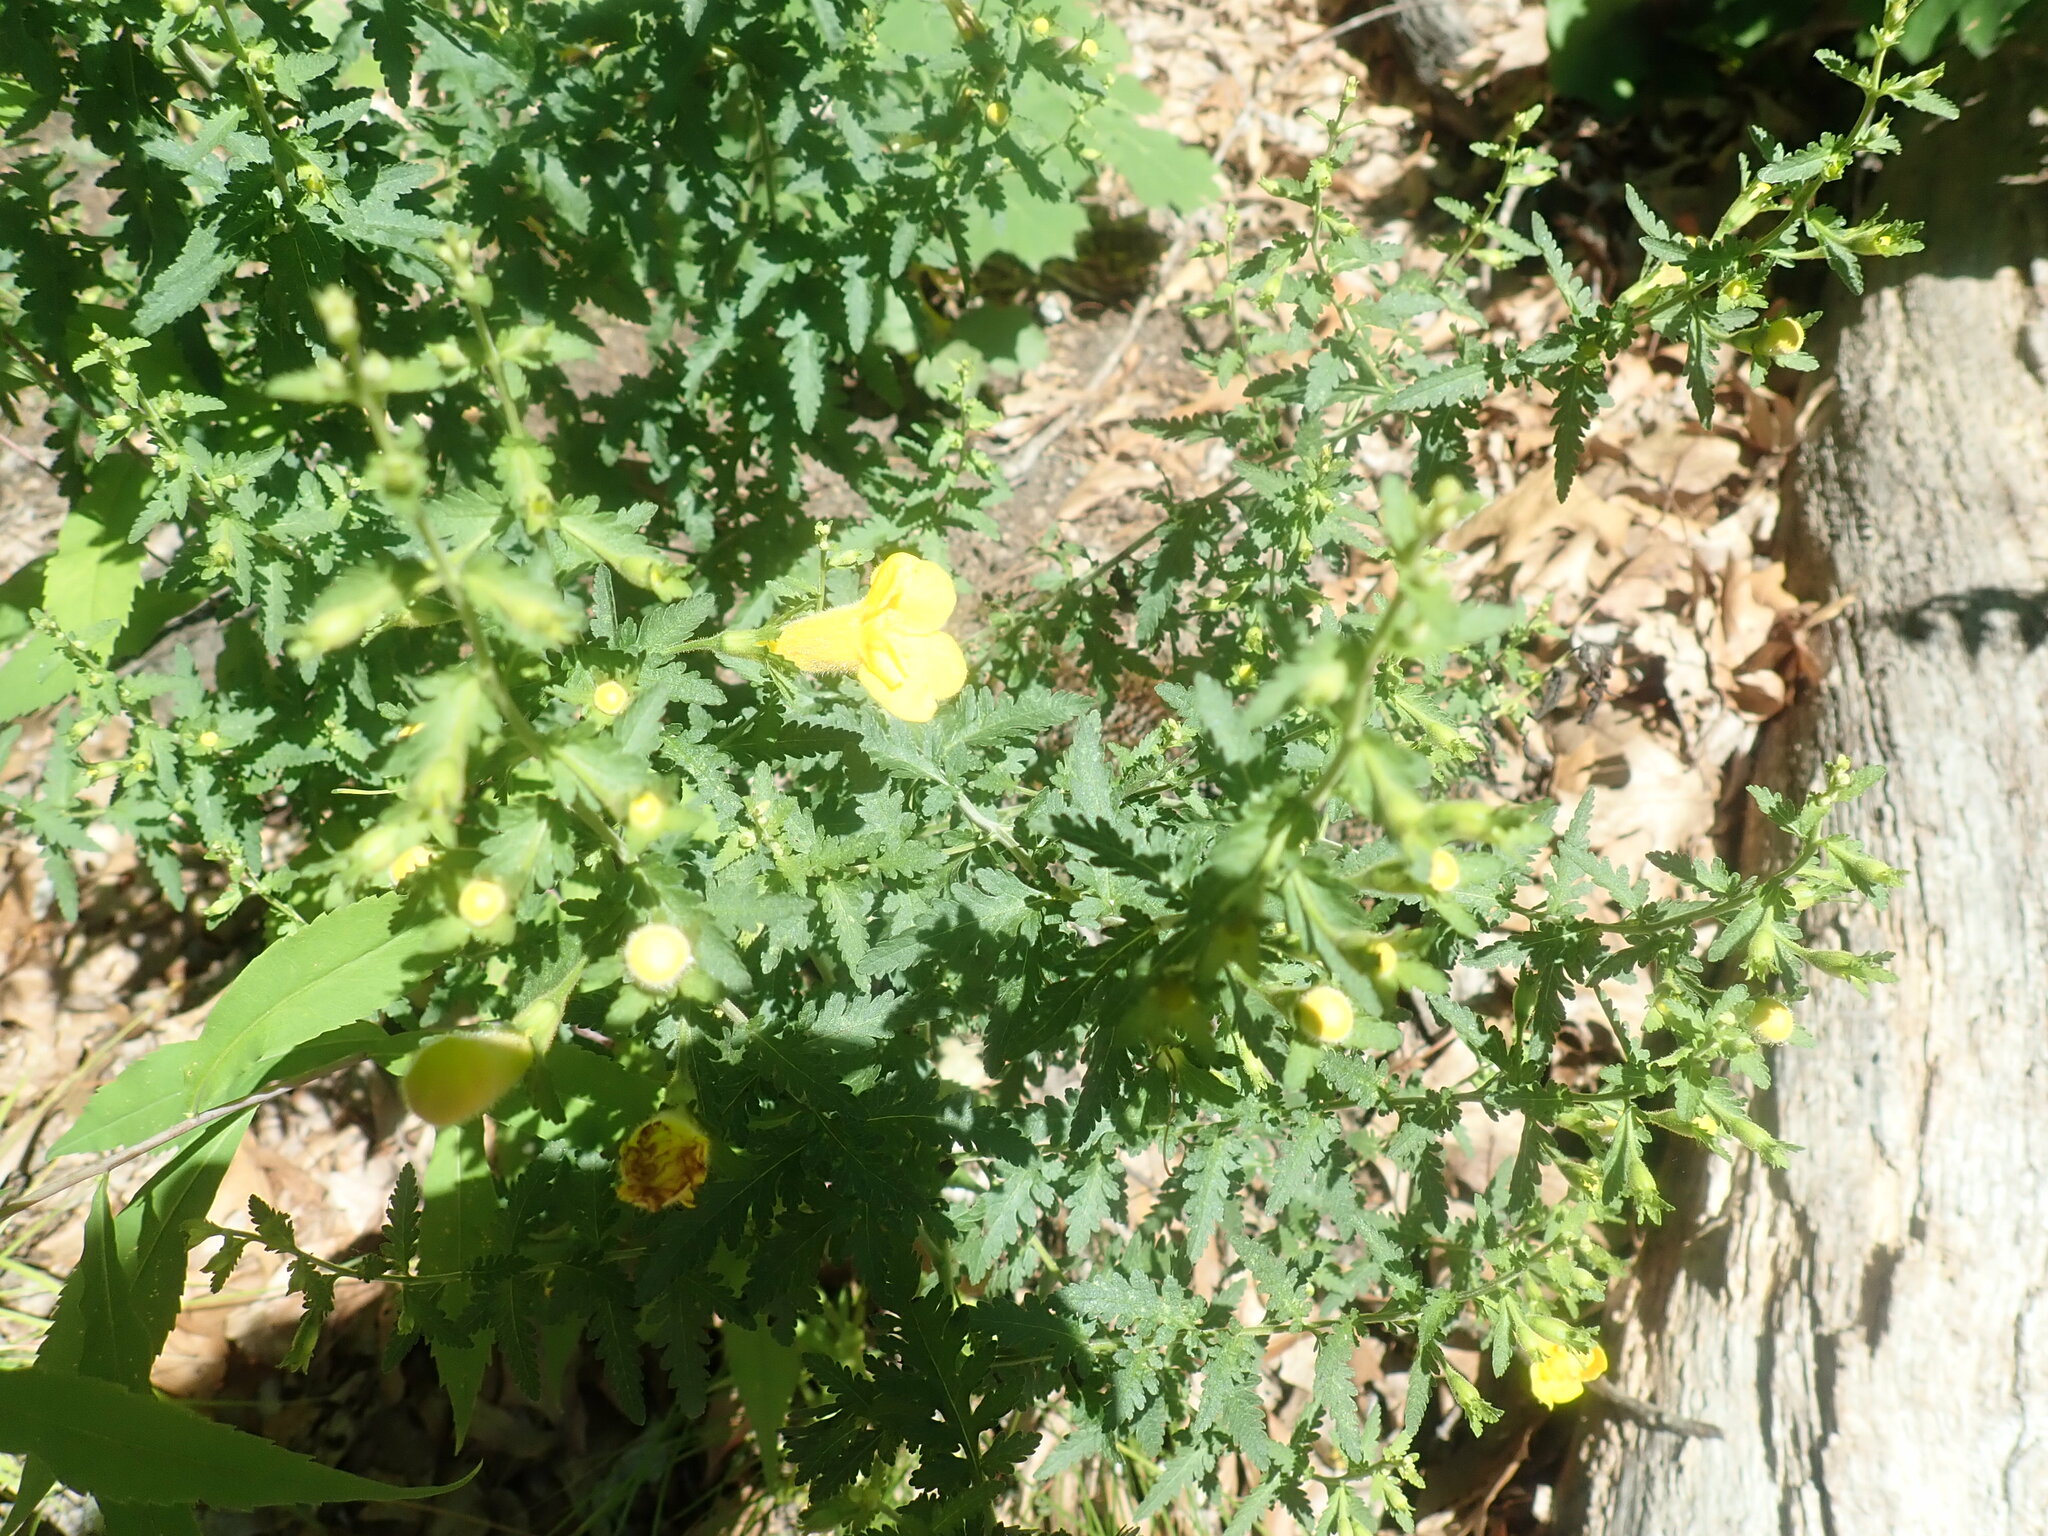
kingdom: Plantae
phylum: Tracheophyta
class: Magnoliopsida
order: Lamiales
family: Orobanchaceae
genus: Aureolaria
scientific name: Aureolaria pedicularia
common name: Annual false foxglove
